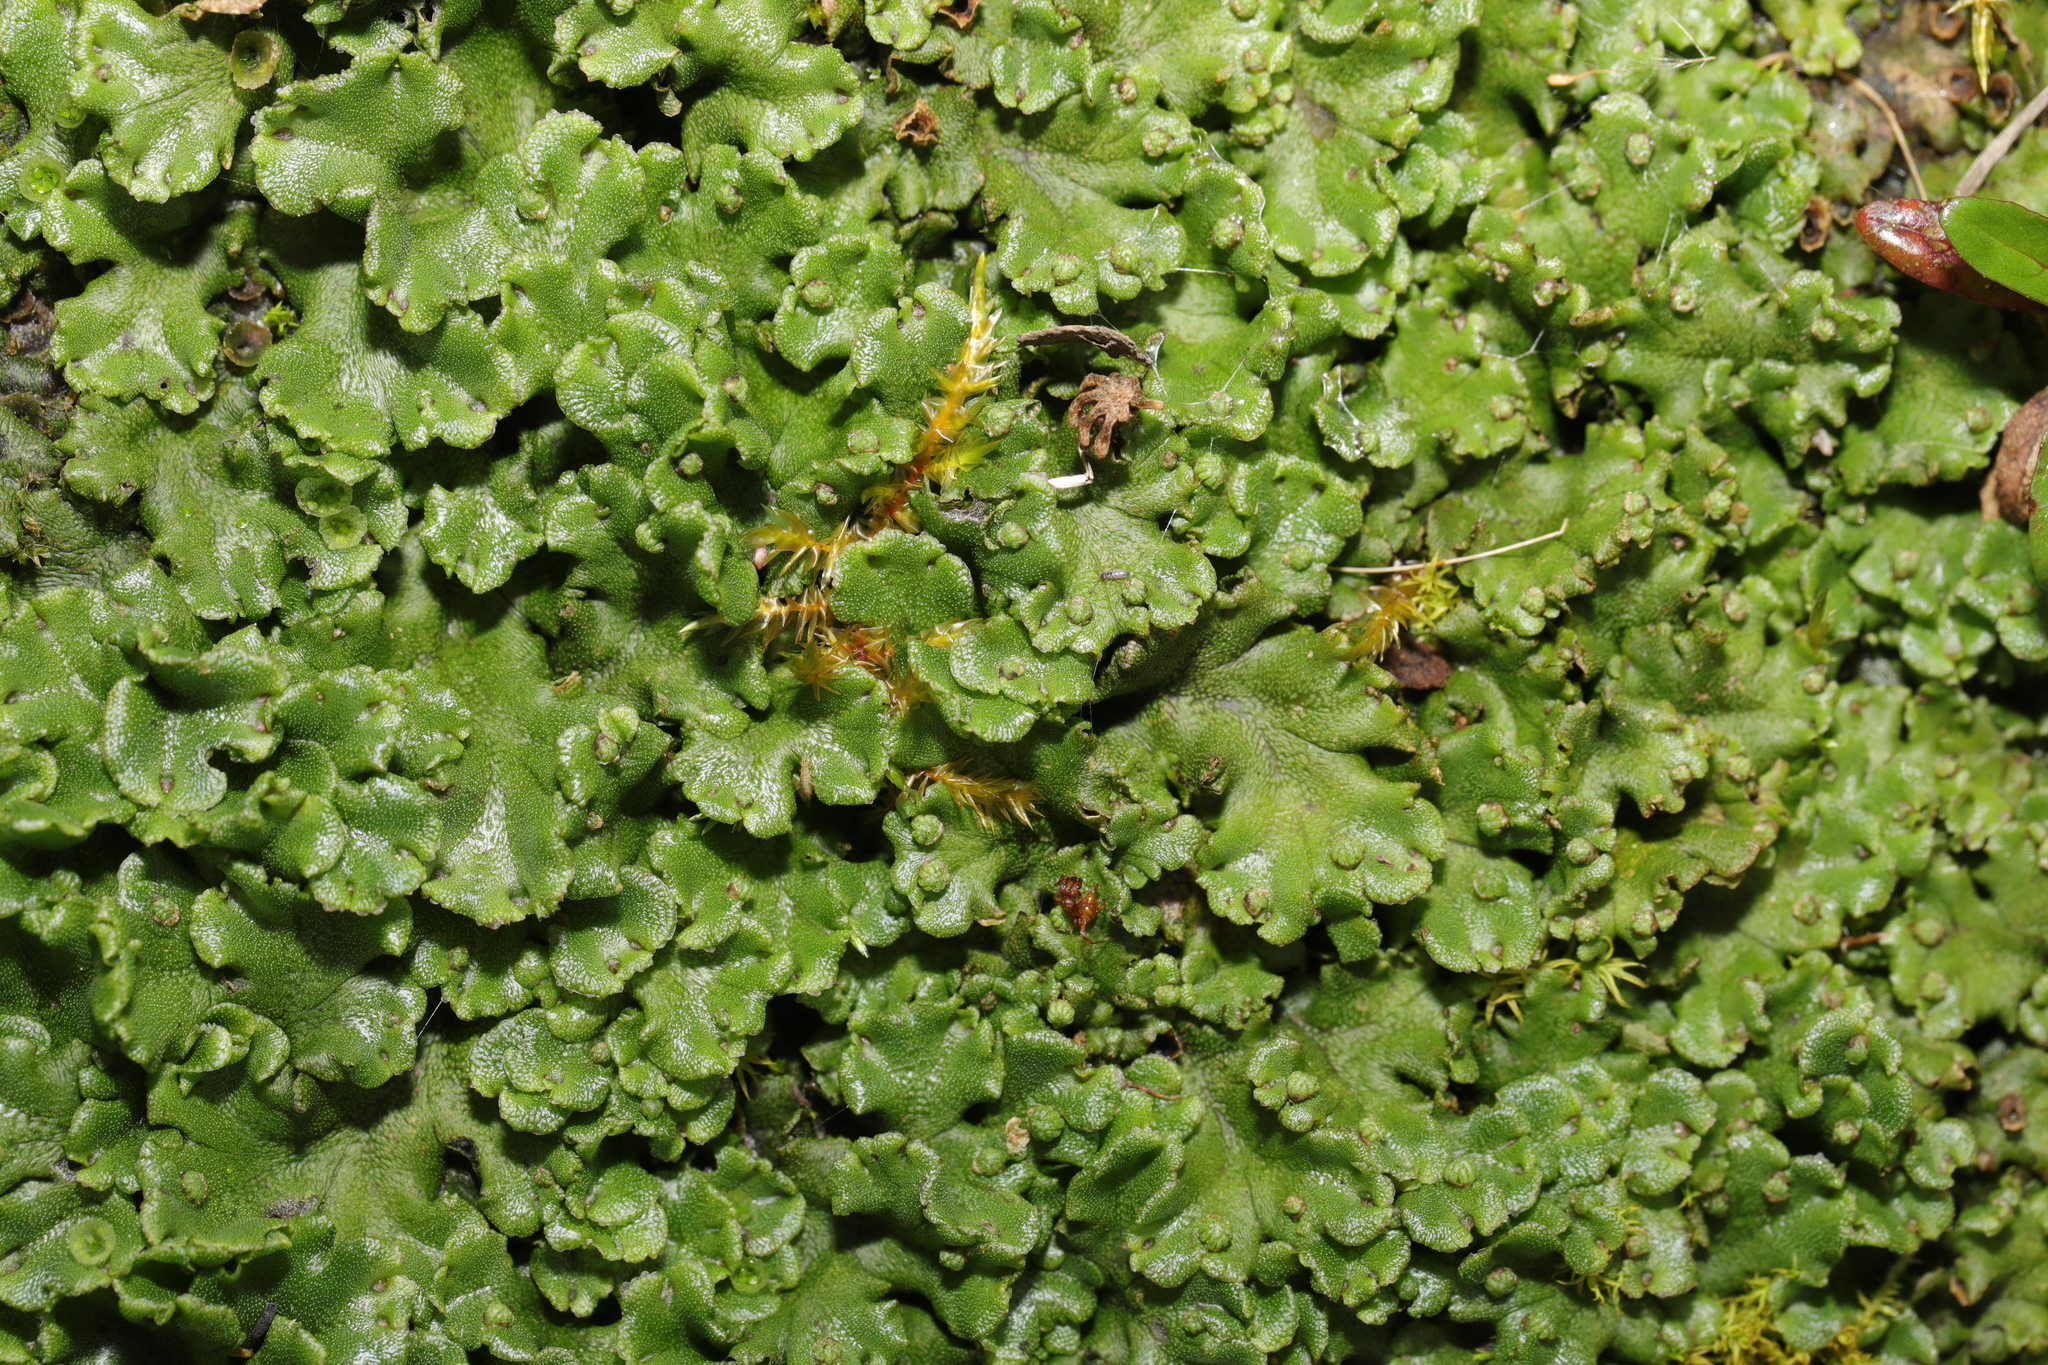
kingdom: Plantae
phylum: Marchantiophyta
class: Marchantiopsida
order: Marchantiales
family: Marchantiaceae
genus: Marchantia
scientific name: Marchantia polymorpha
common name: Common liverwort
